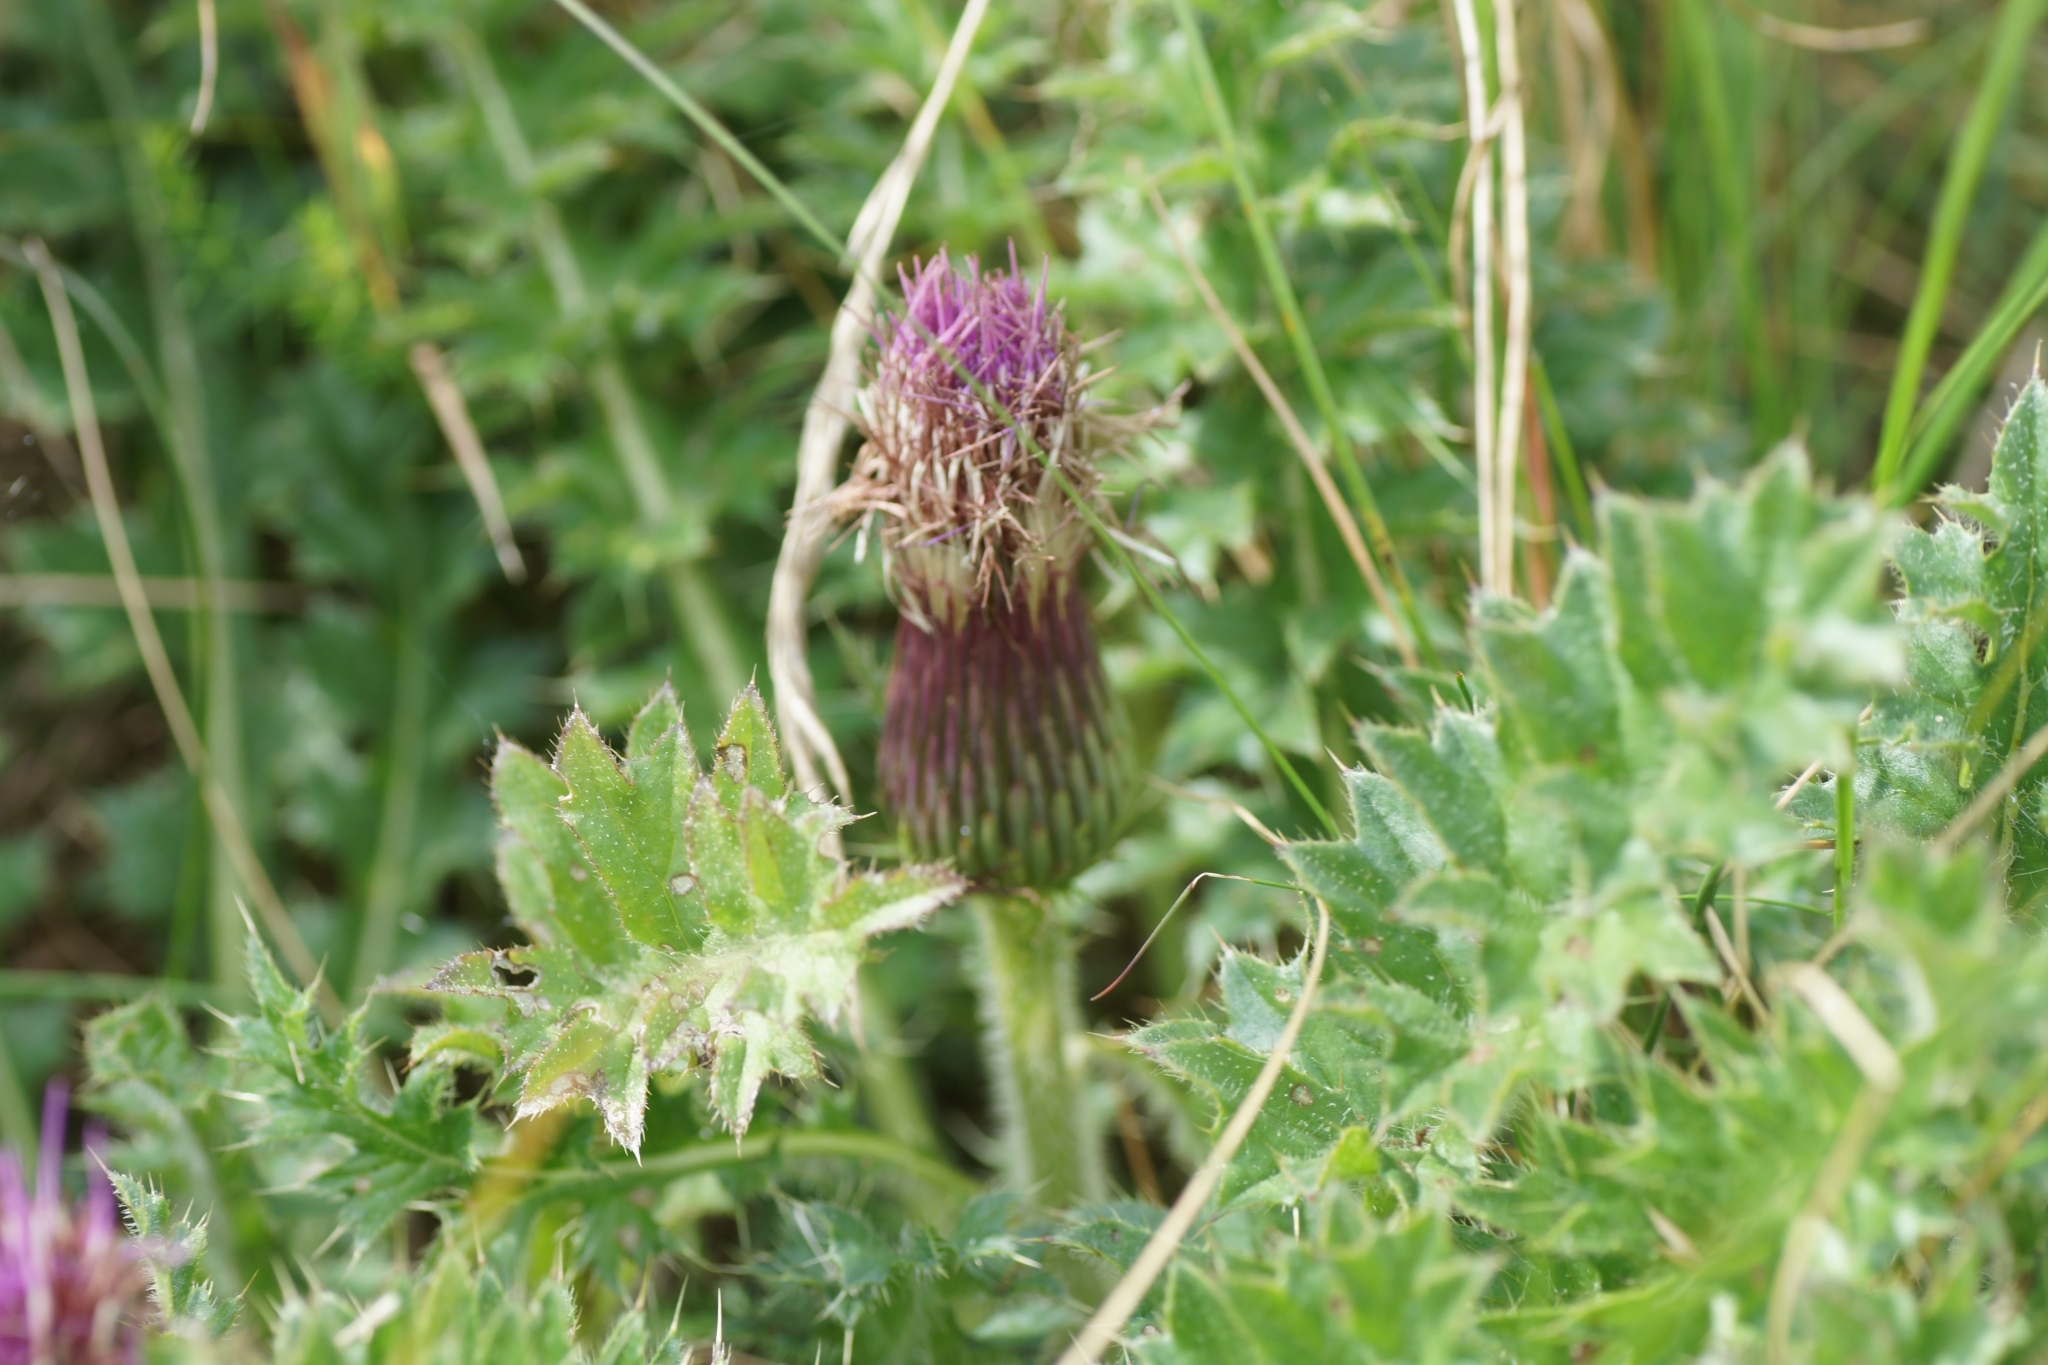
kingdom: Plantae
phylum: Tracheophyta
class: Magnoliopsida
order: Asterales
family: Asteraceae
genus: Cirsium
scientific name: Cirsium acaulon
